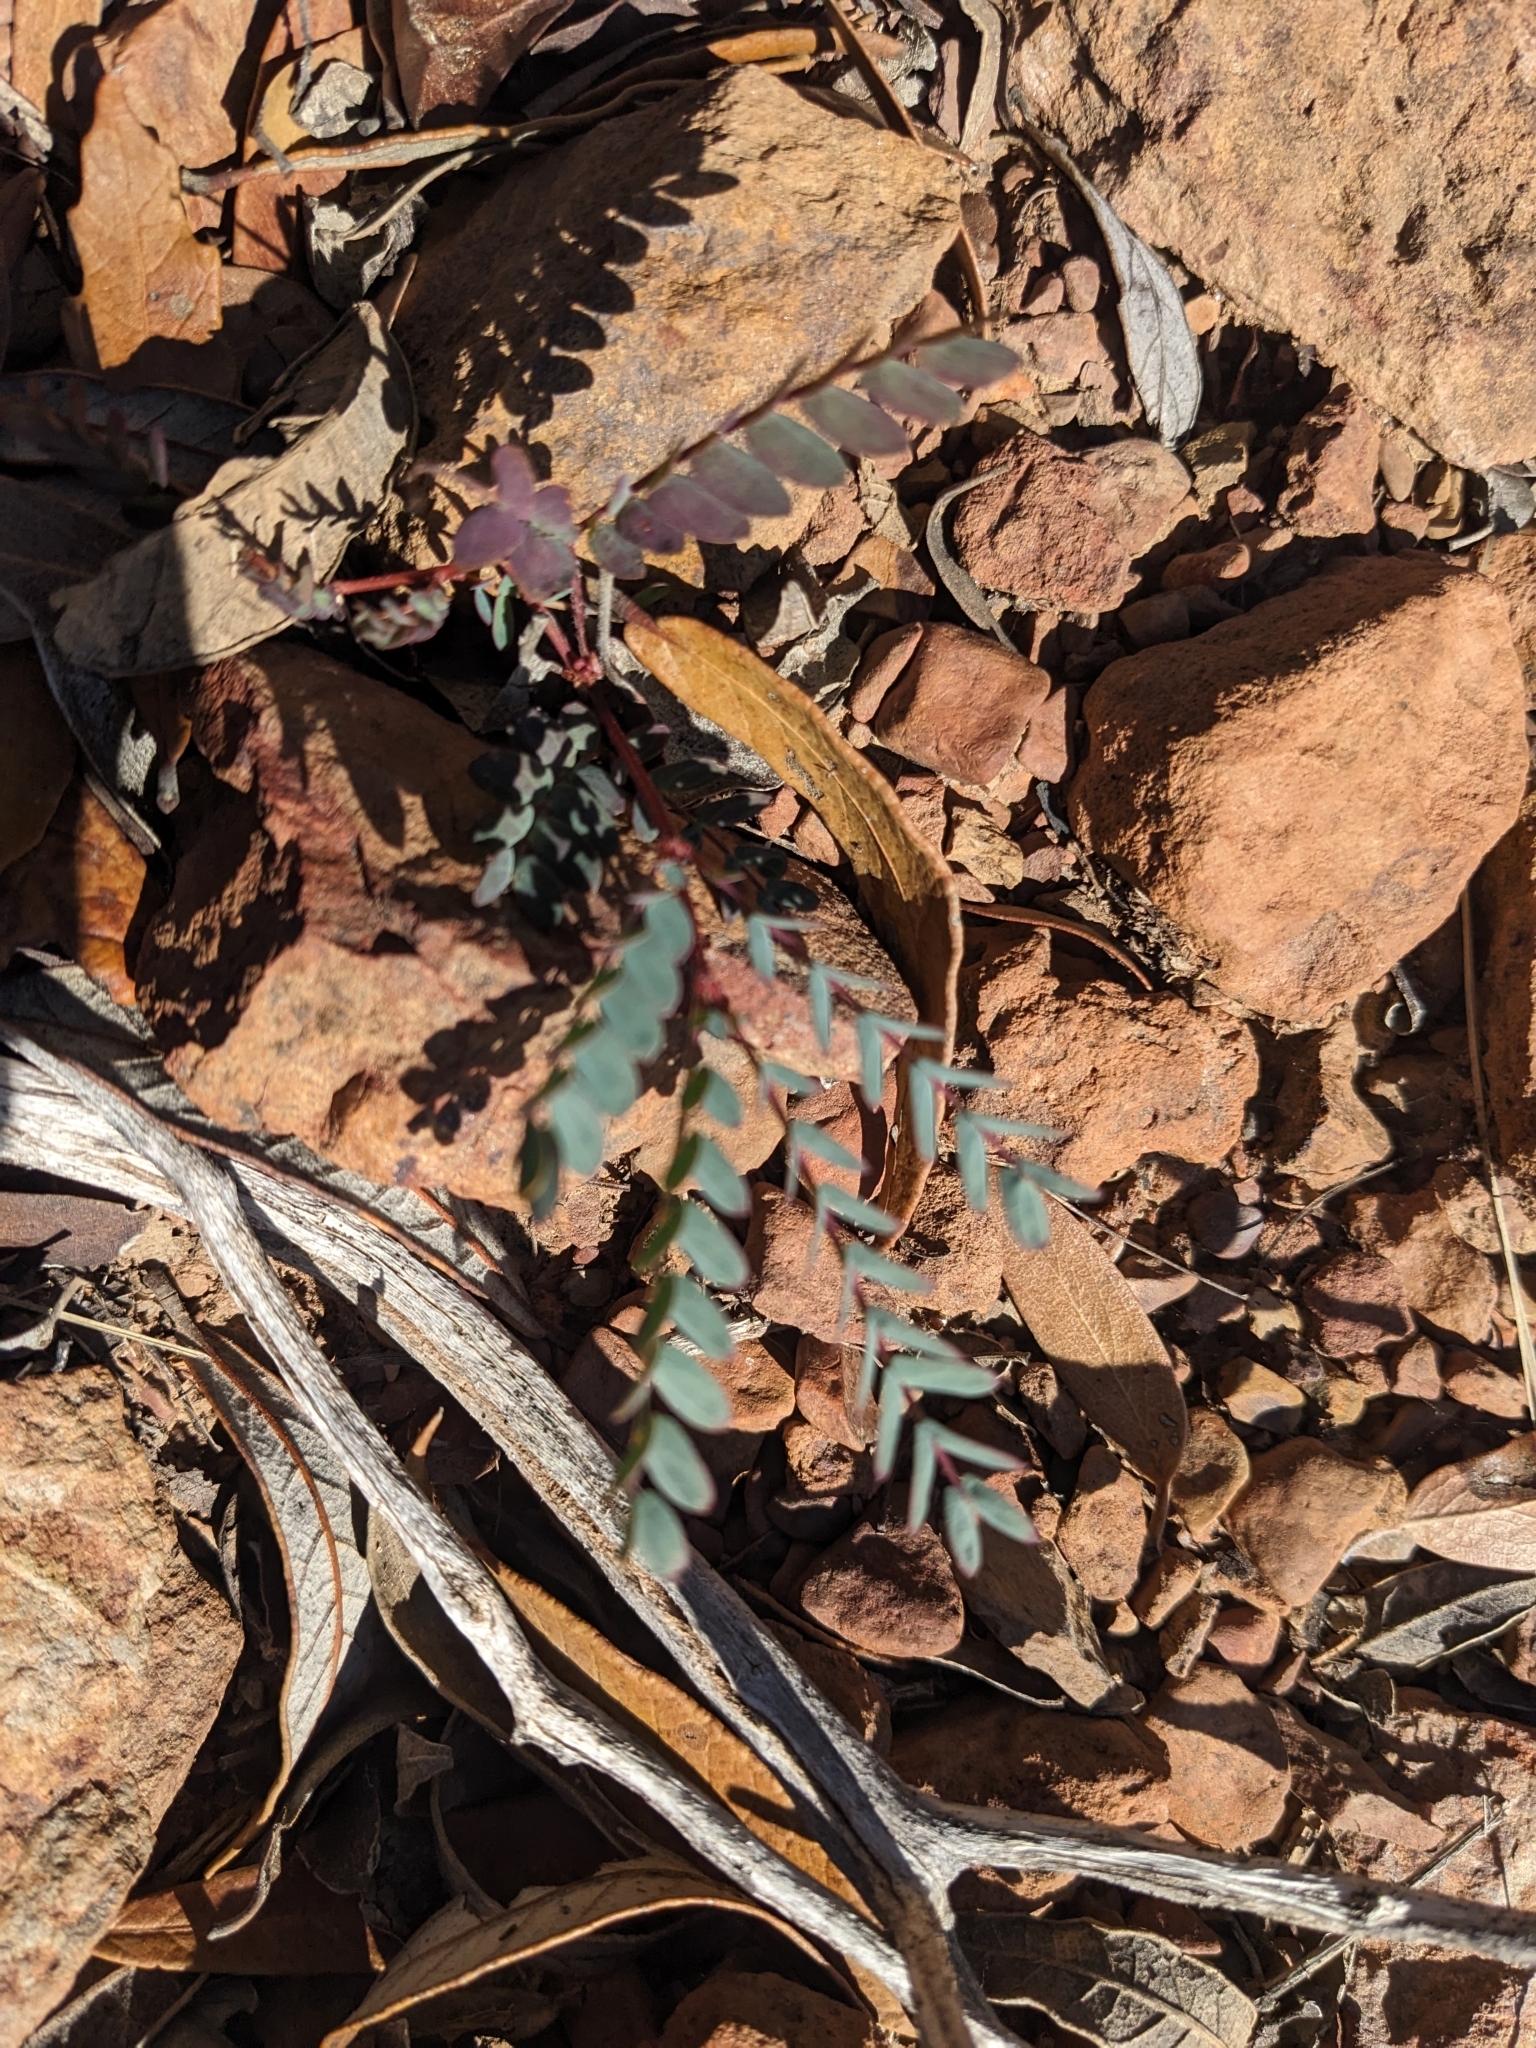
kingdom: Plantae
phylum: Tracheophyta
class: Magnoliopsida
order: Fabales
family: Fabaceae
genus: Calliandra
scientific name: Calliandra humilis
